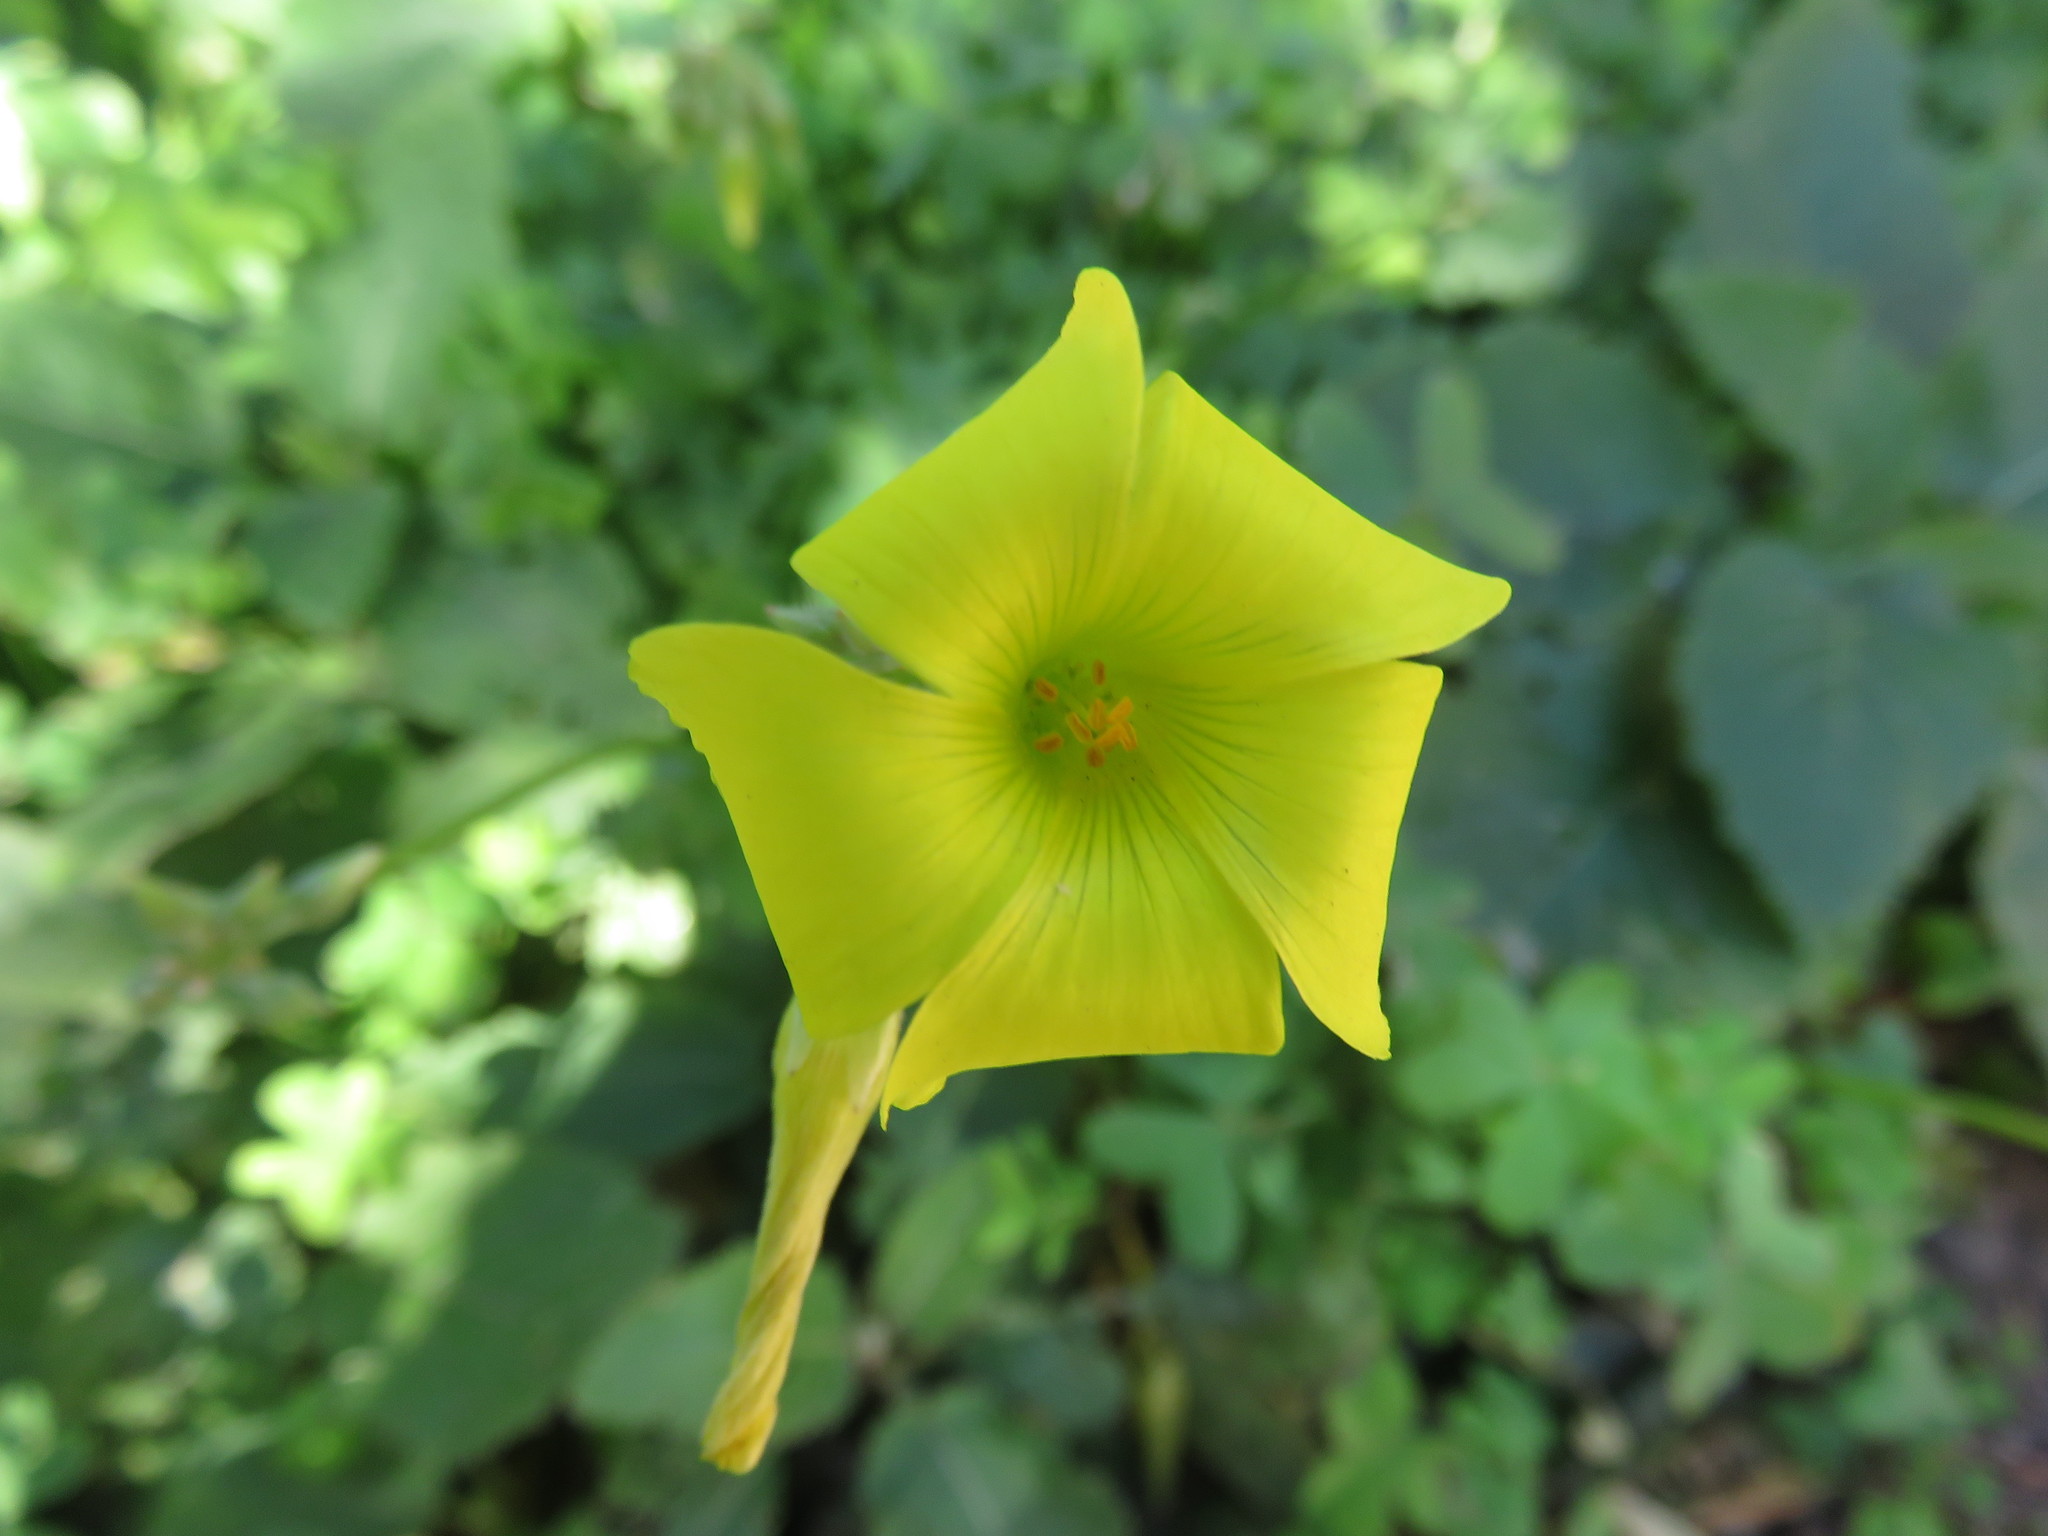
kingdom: Plantae
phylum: Tracheophyta
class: Magnoliopsida
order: Oxalidales
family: Oxalidaceae
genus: Oxalis
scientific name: Oxalis pes-caprae
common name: Bermuda-buttercup
